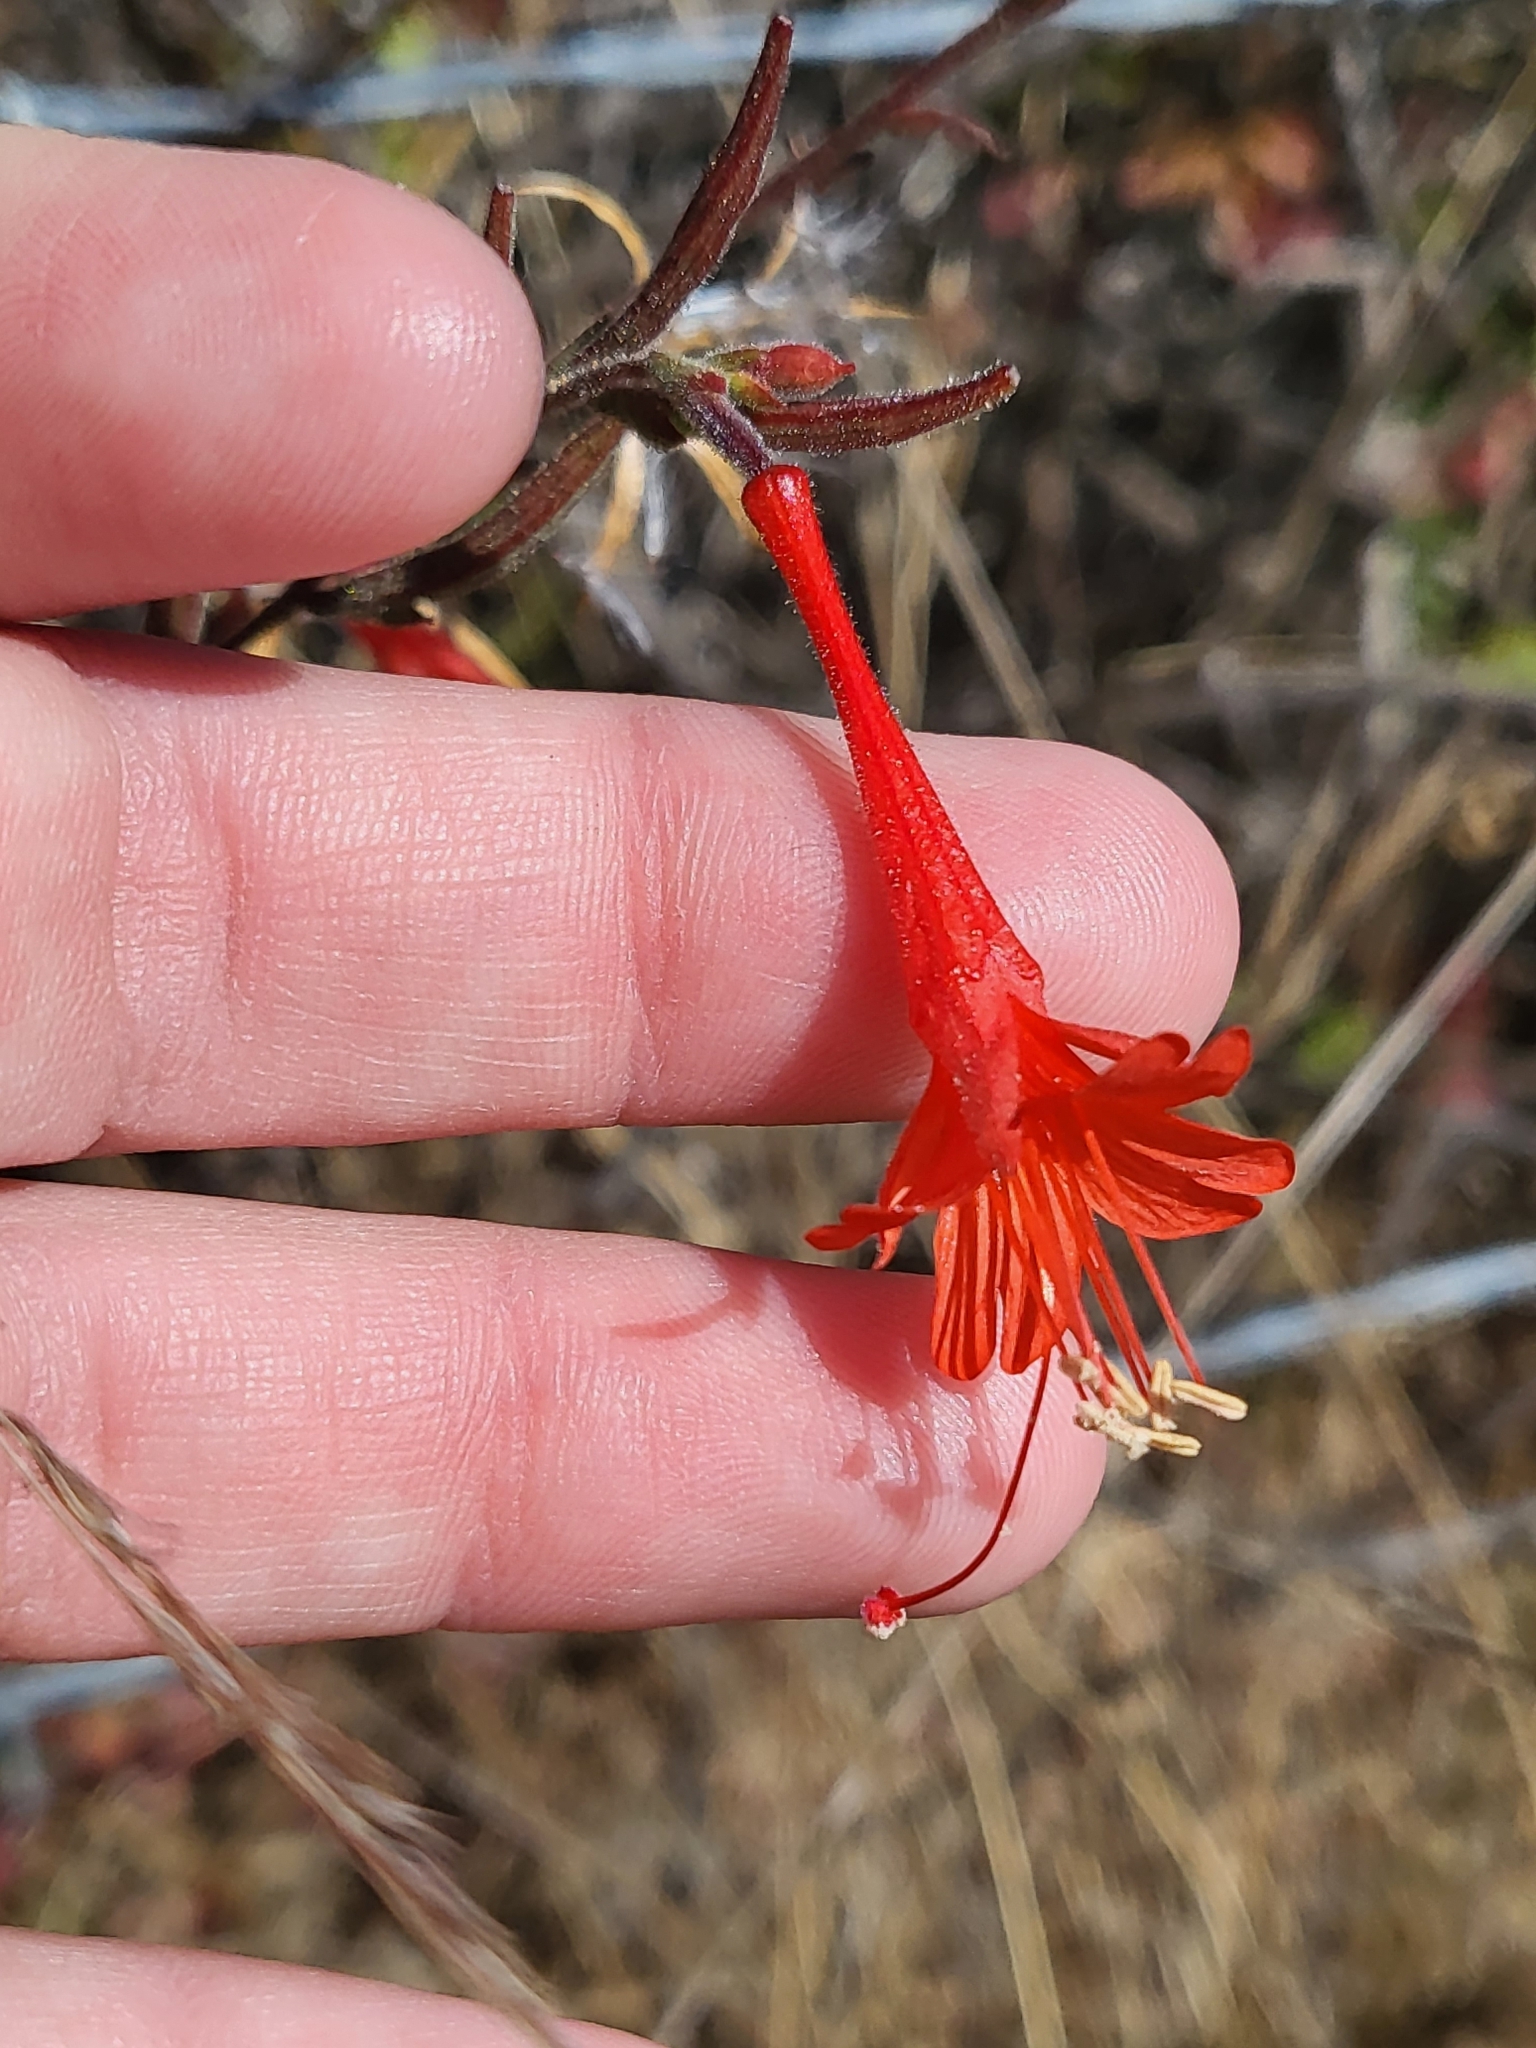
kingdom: Plantae
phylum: Tracheophyta
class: Magnoliopsida
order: Myrtales
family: Onagraceae
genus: Epilobium
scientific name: Epilobium canum
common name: California-fuchsia
